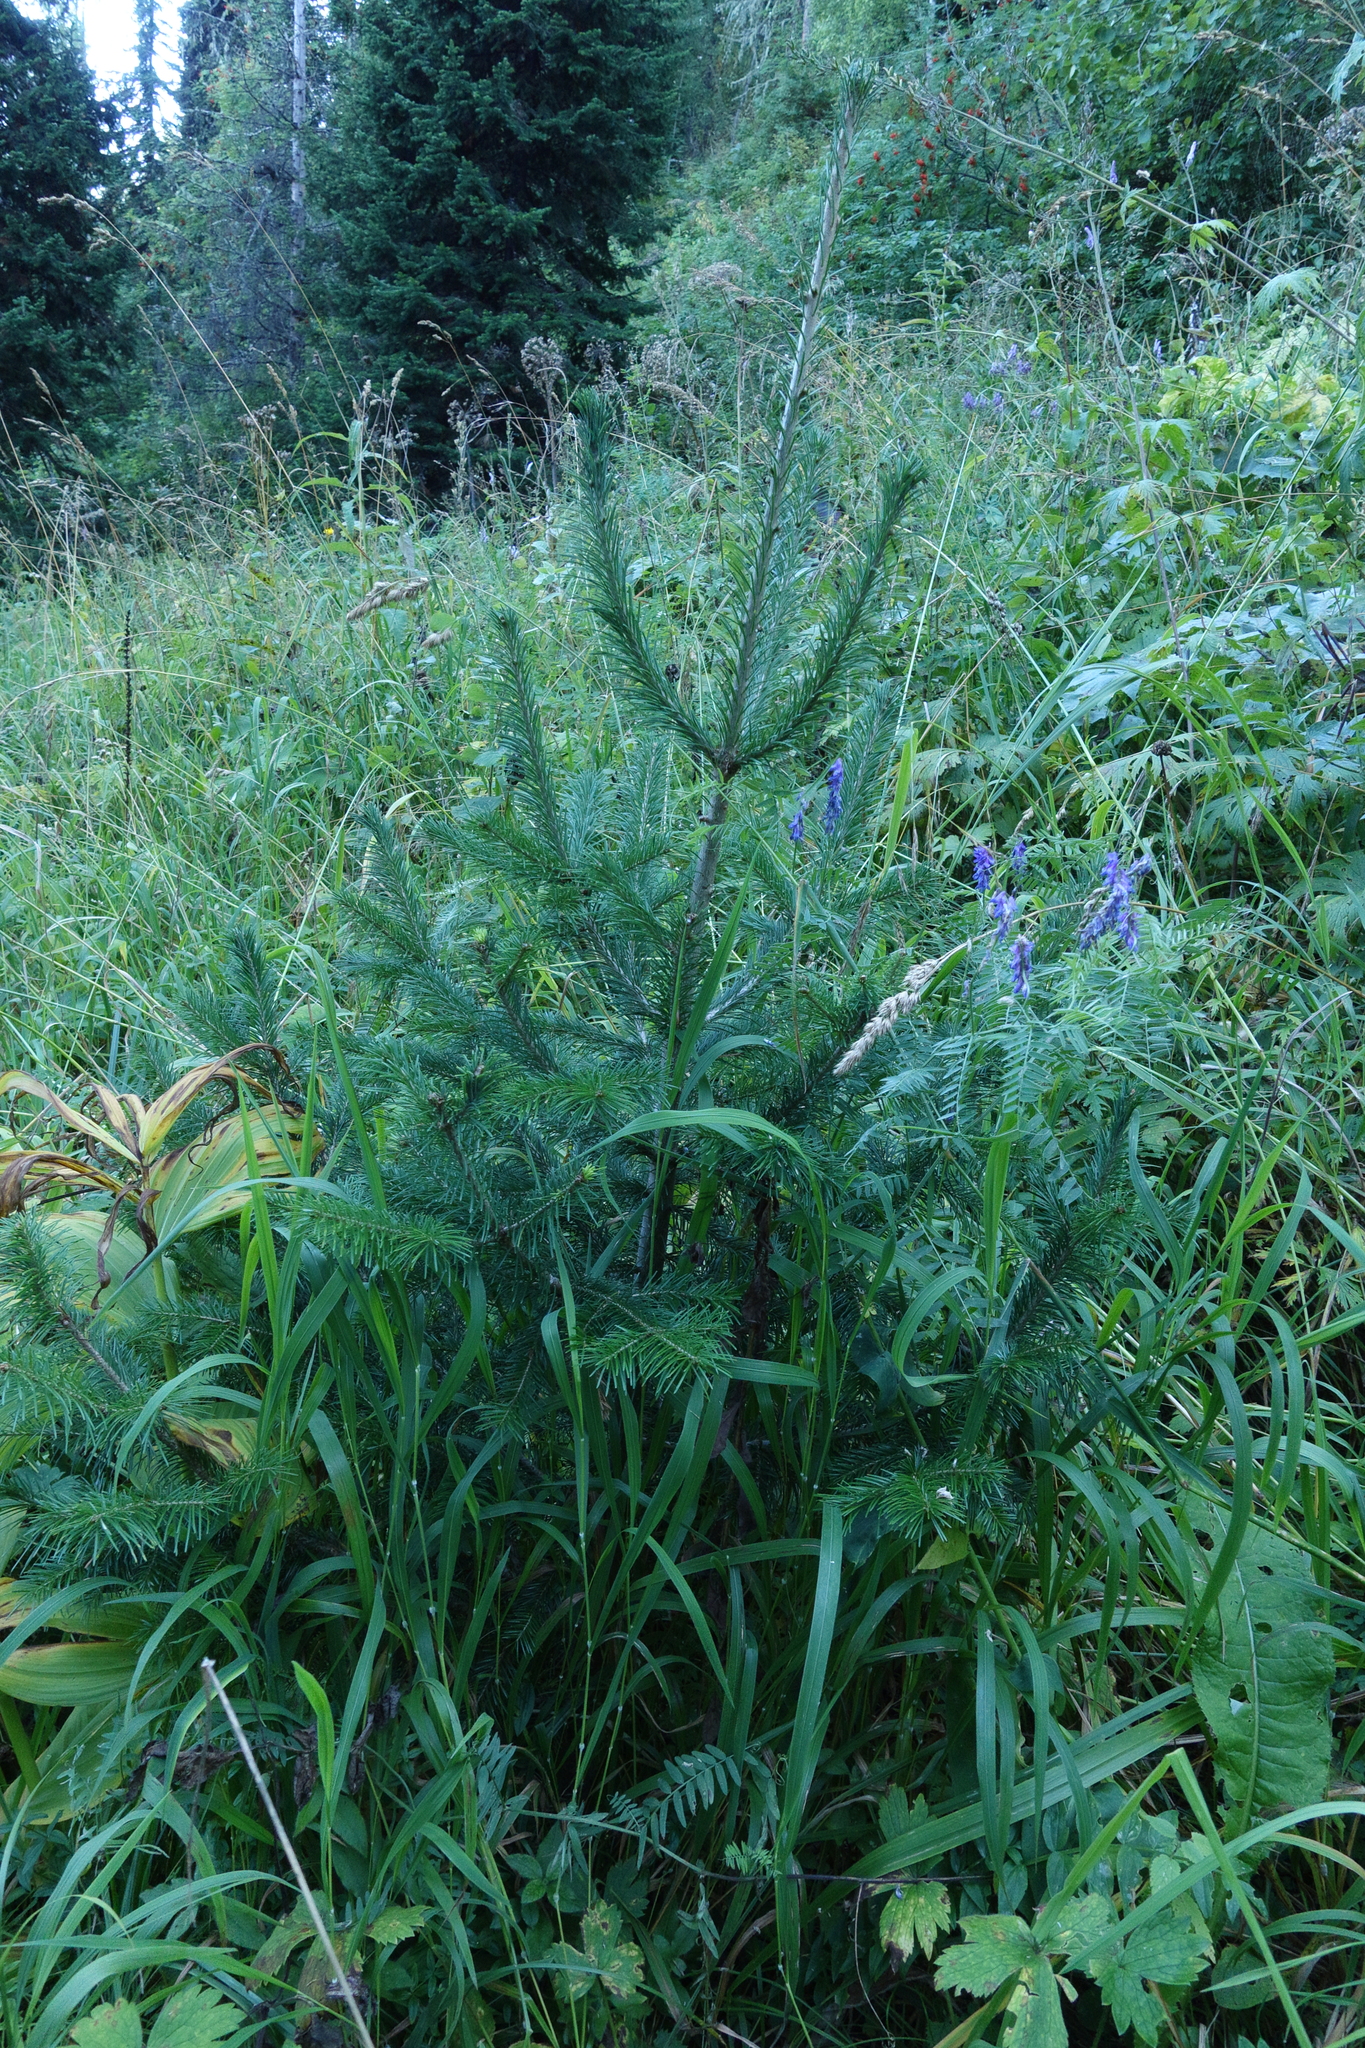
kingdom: Plantae
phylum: Tracheophyta
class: Pinopsida
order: Pinales
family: Pinaceae
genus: Abies
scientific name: Abies sibirica
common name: Siberian fir
